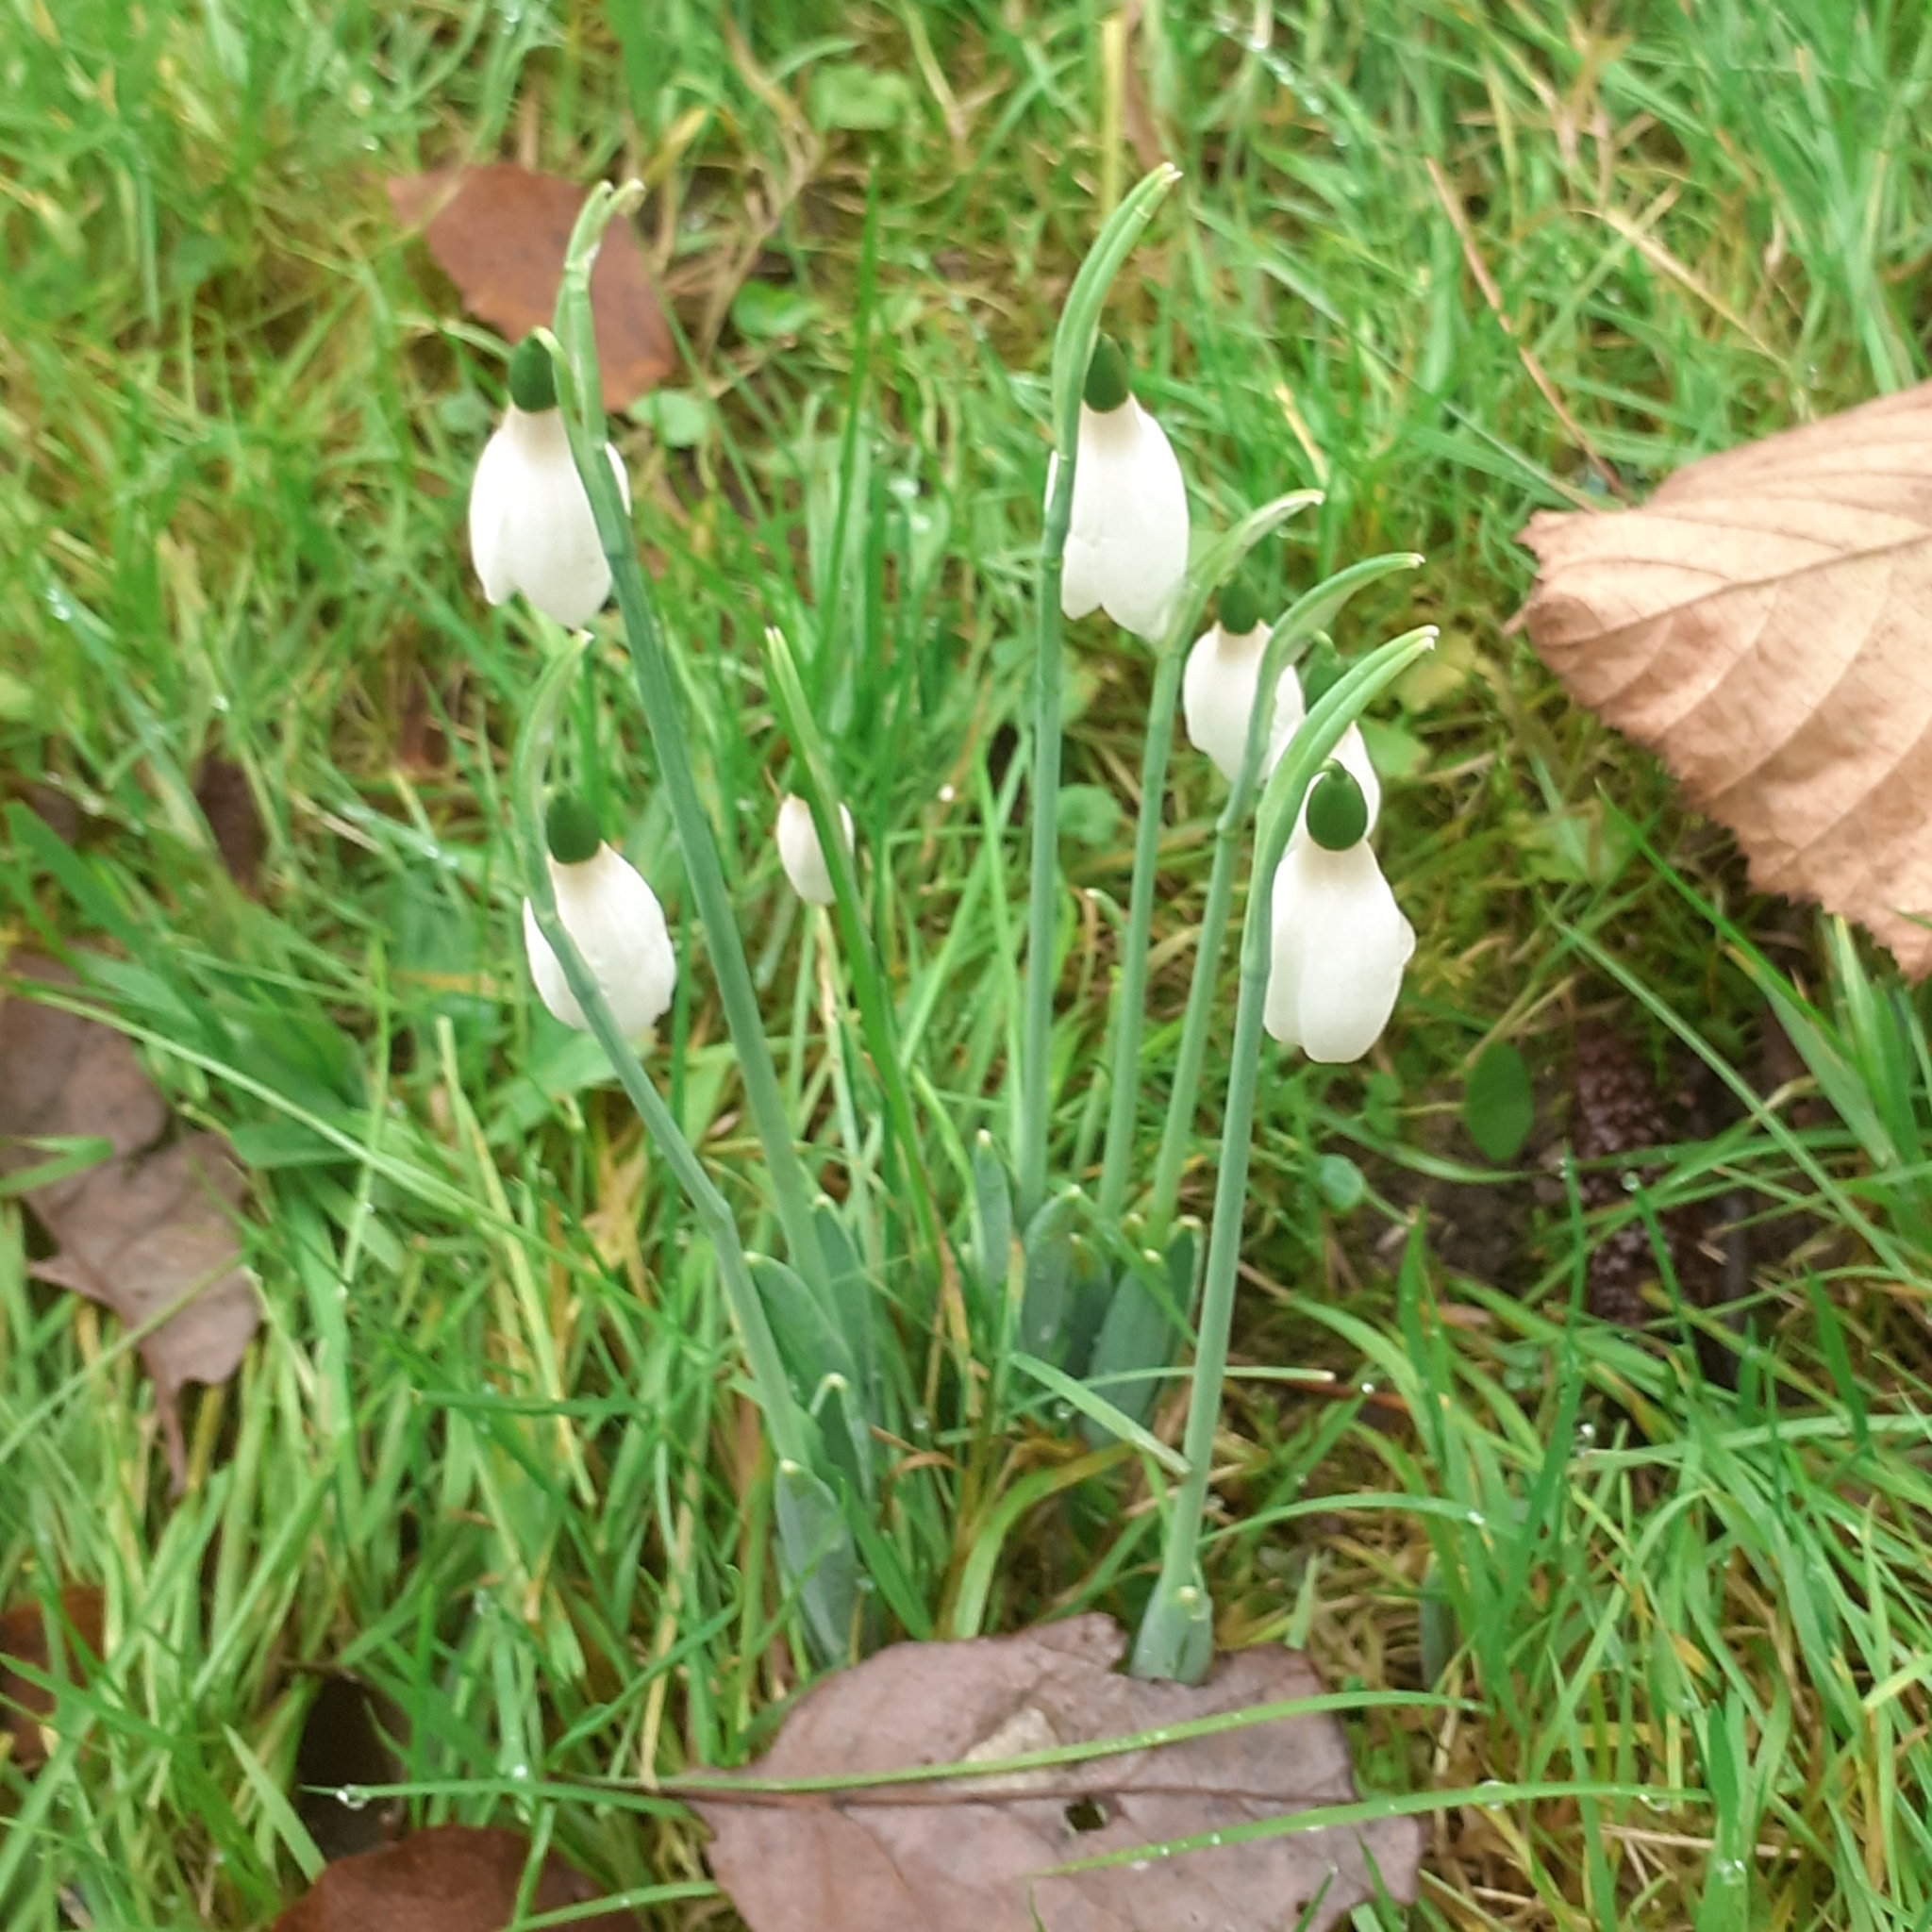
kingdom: Plantae
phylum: Tracheophyta
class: Liliopsida
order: Asparagales
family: Amaryllidaceae
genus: Galanthus
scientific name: Galanthus elwesii
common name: Greater snowdrop
